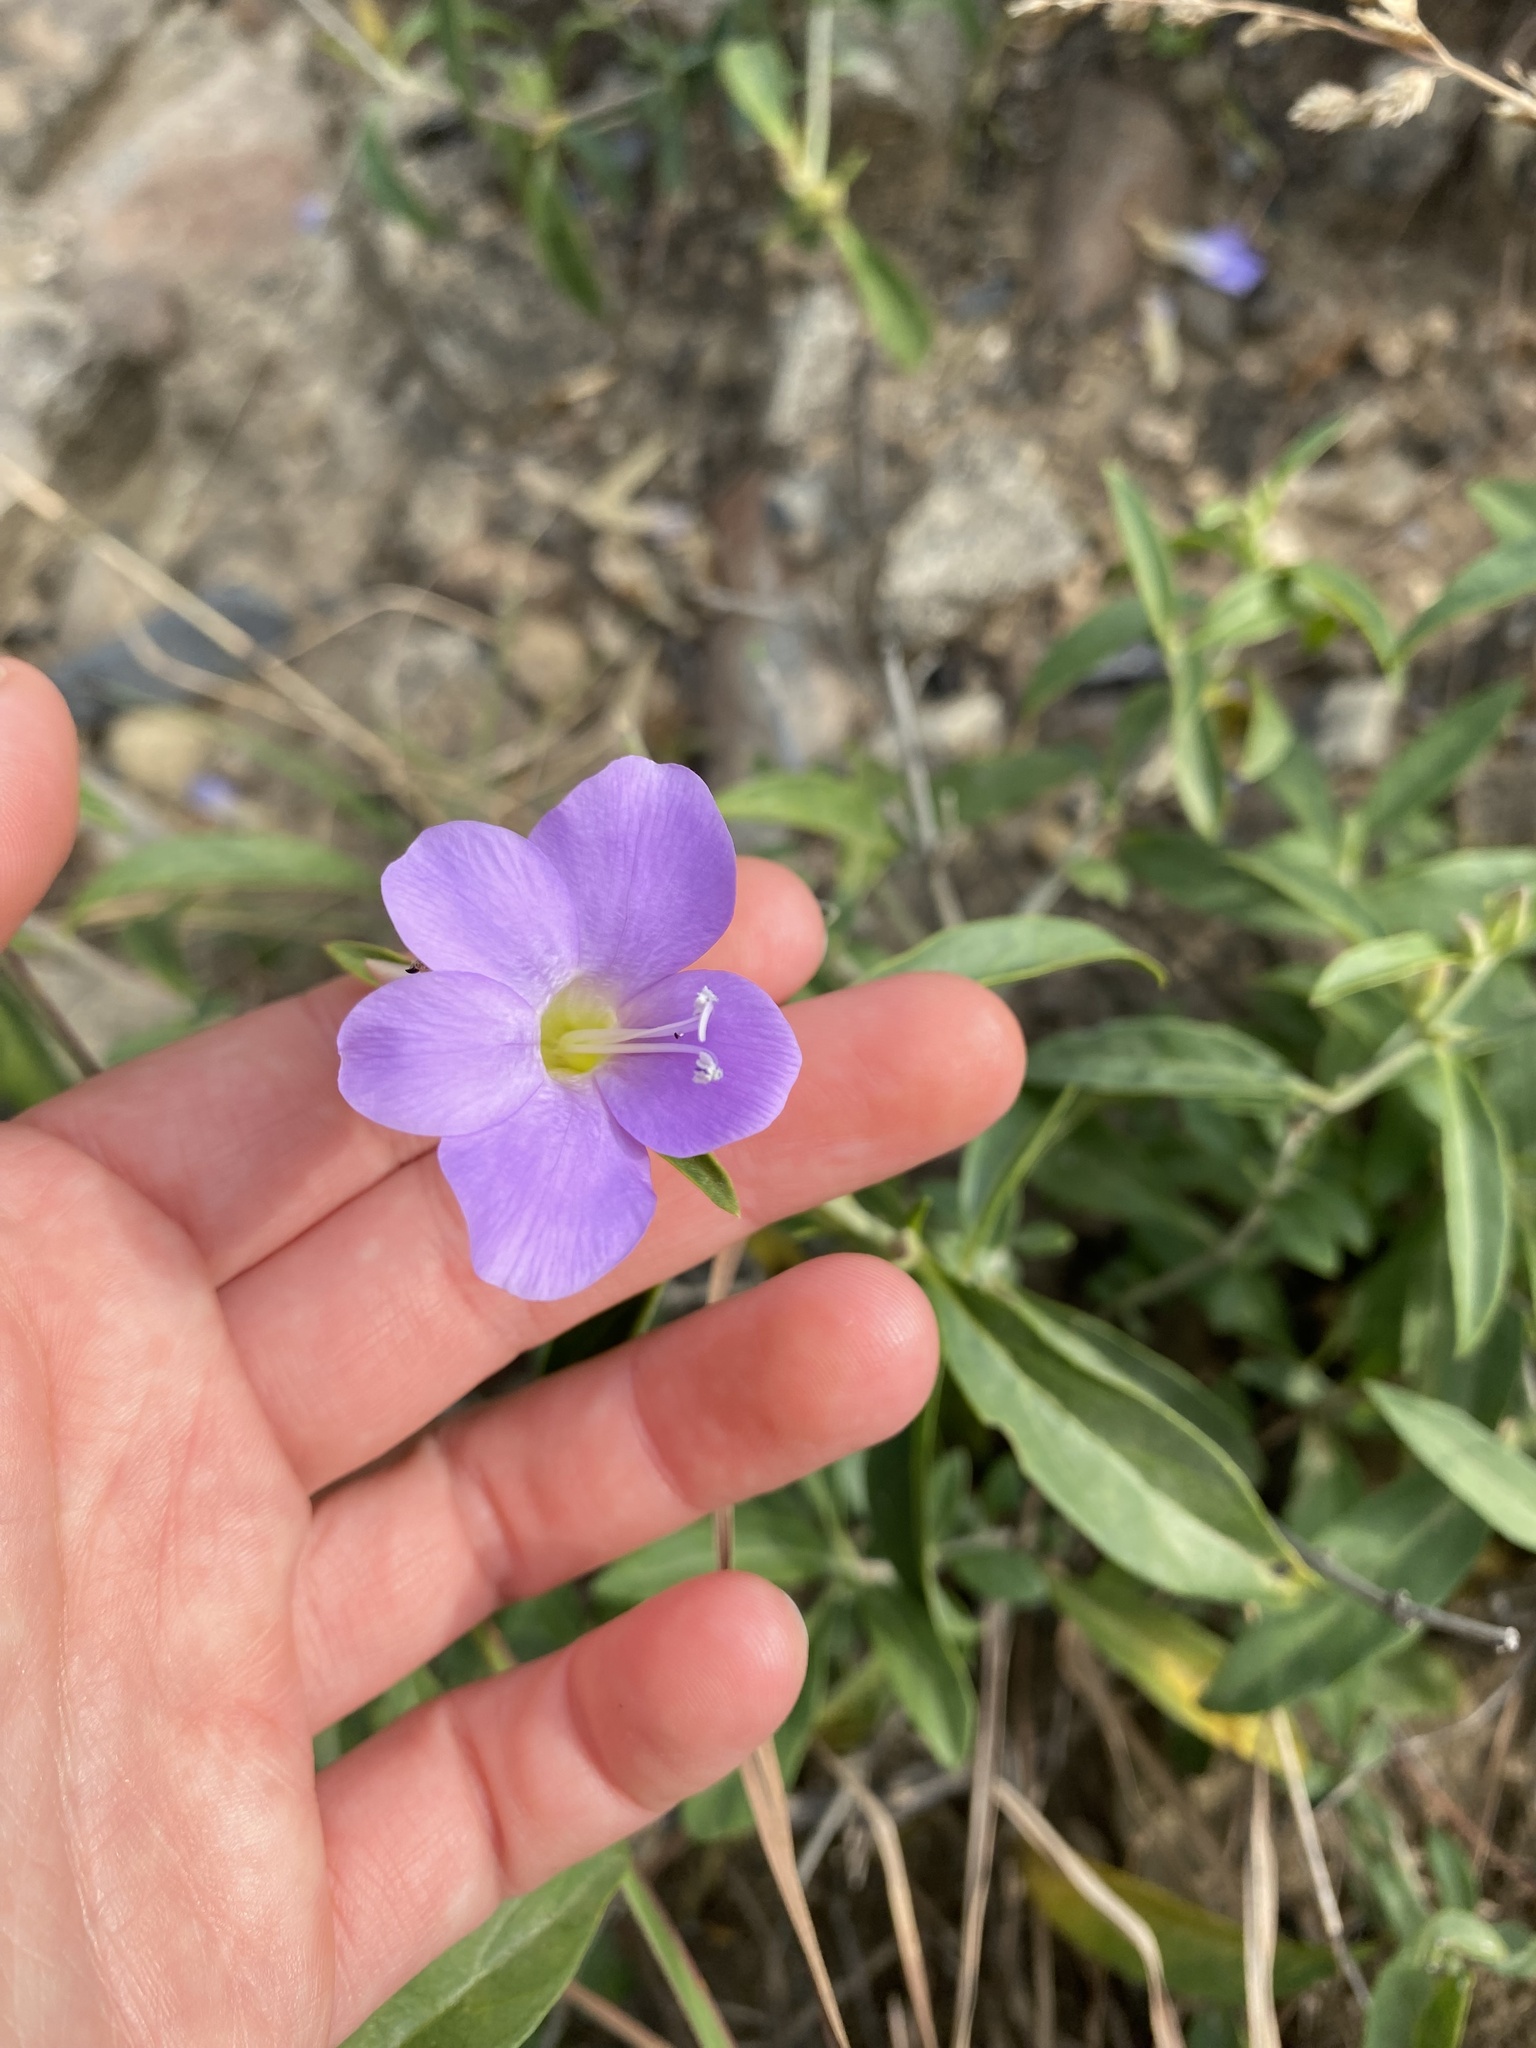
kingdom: Plantae
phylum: Tracheophyta
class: Magnoliopsida
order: Lamiales
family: Acanthaceae
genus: Barleria
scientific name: Barleria lancifolia
